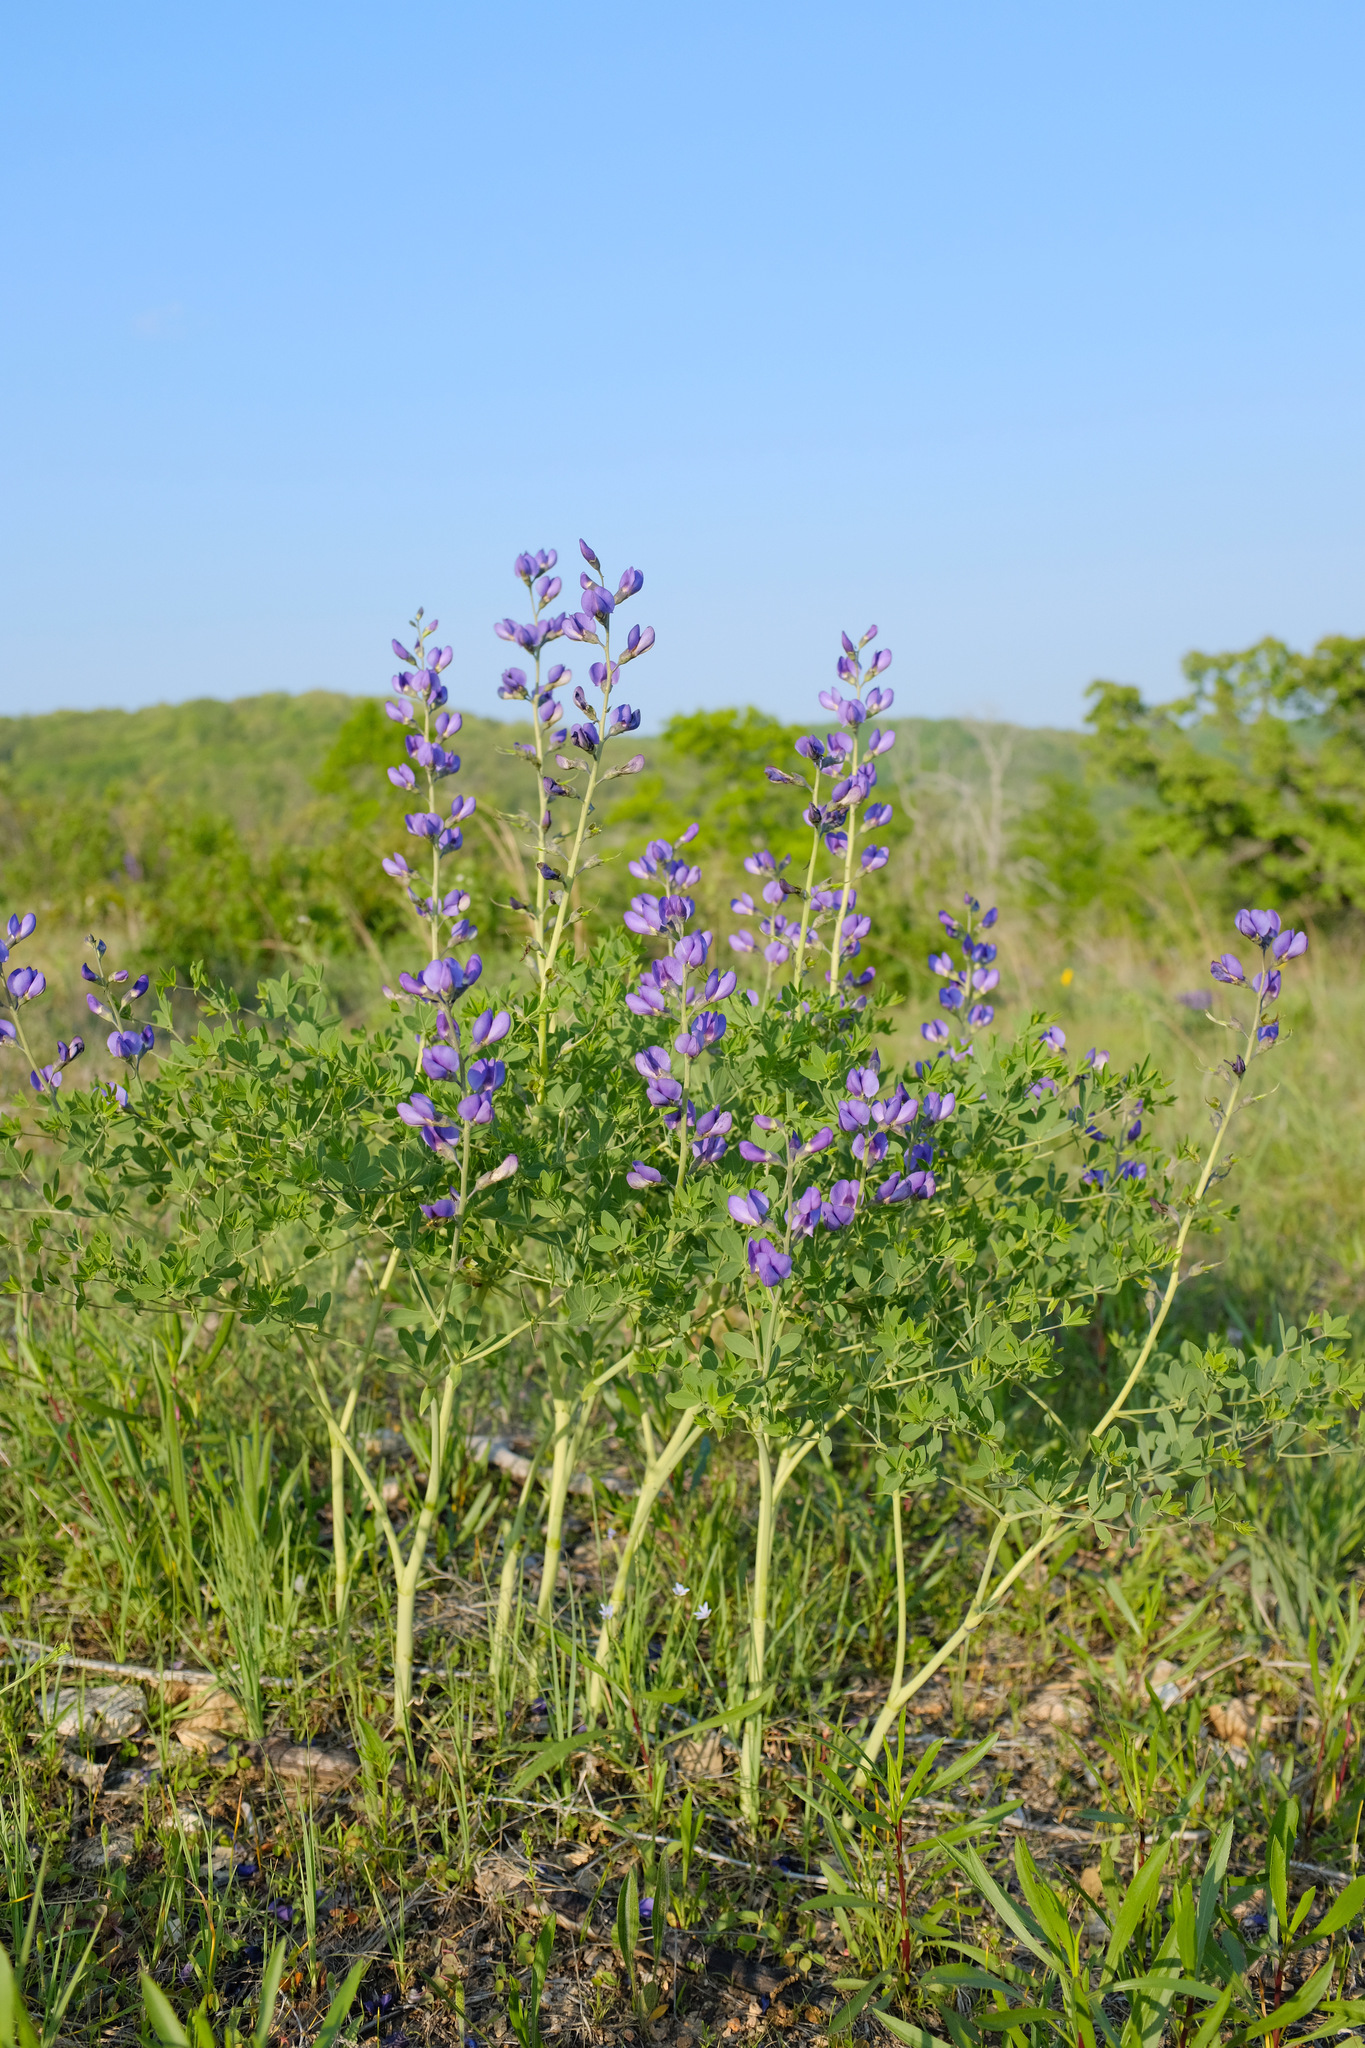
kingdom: Plantae
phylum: Tracheophyta
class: Magnoliopsida
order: Fabales
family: Fabaceae
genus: Baptisia
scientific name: Baptisia australis
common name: Blue false indigo
